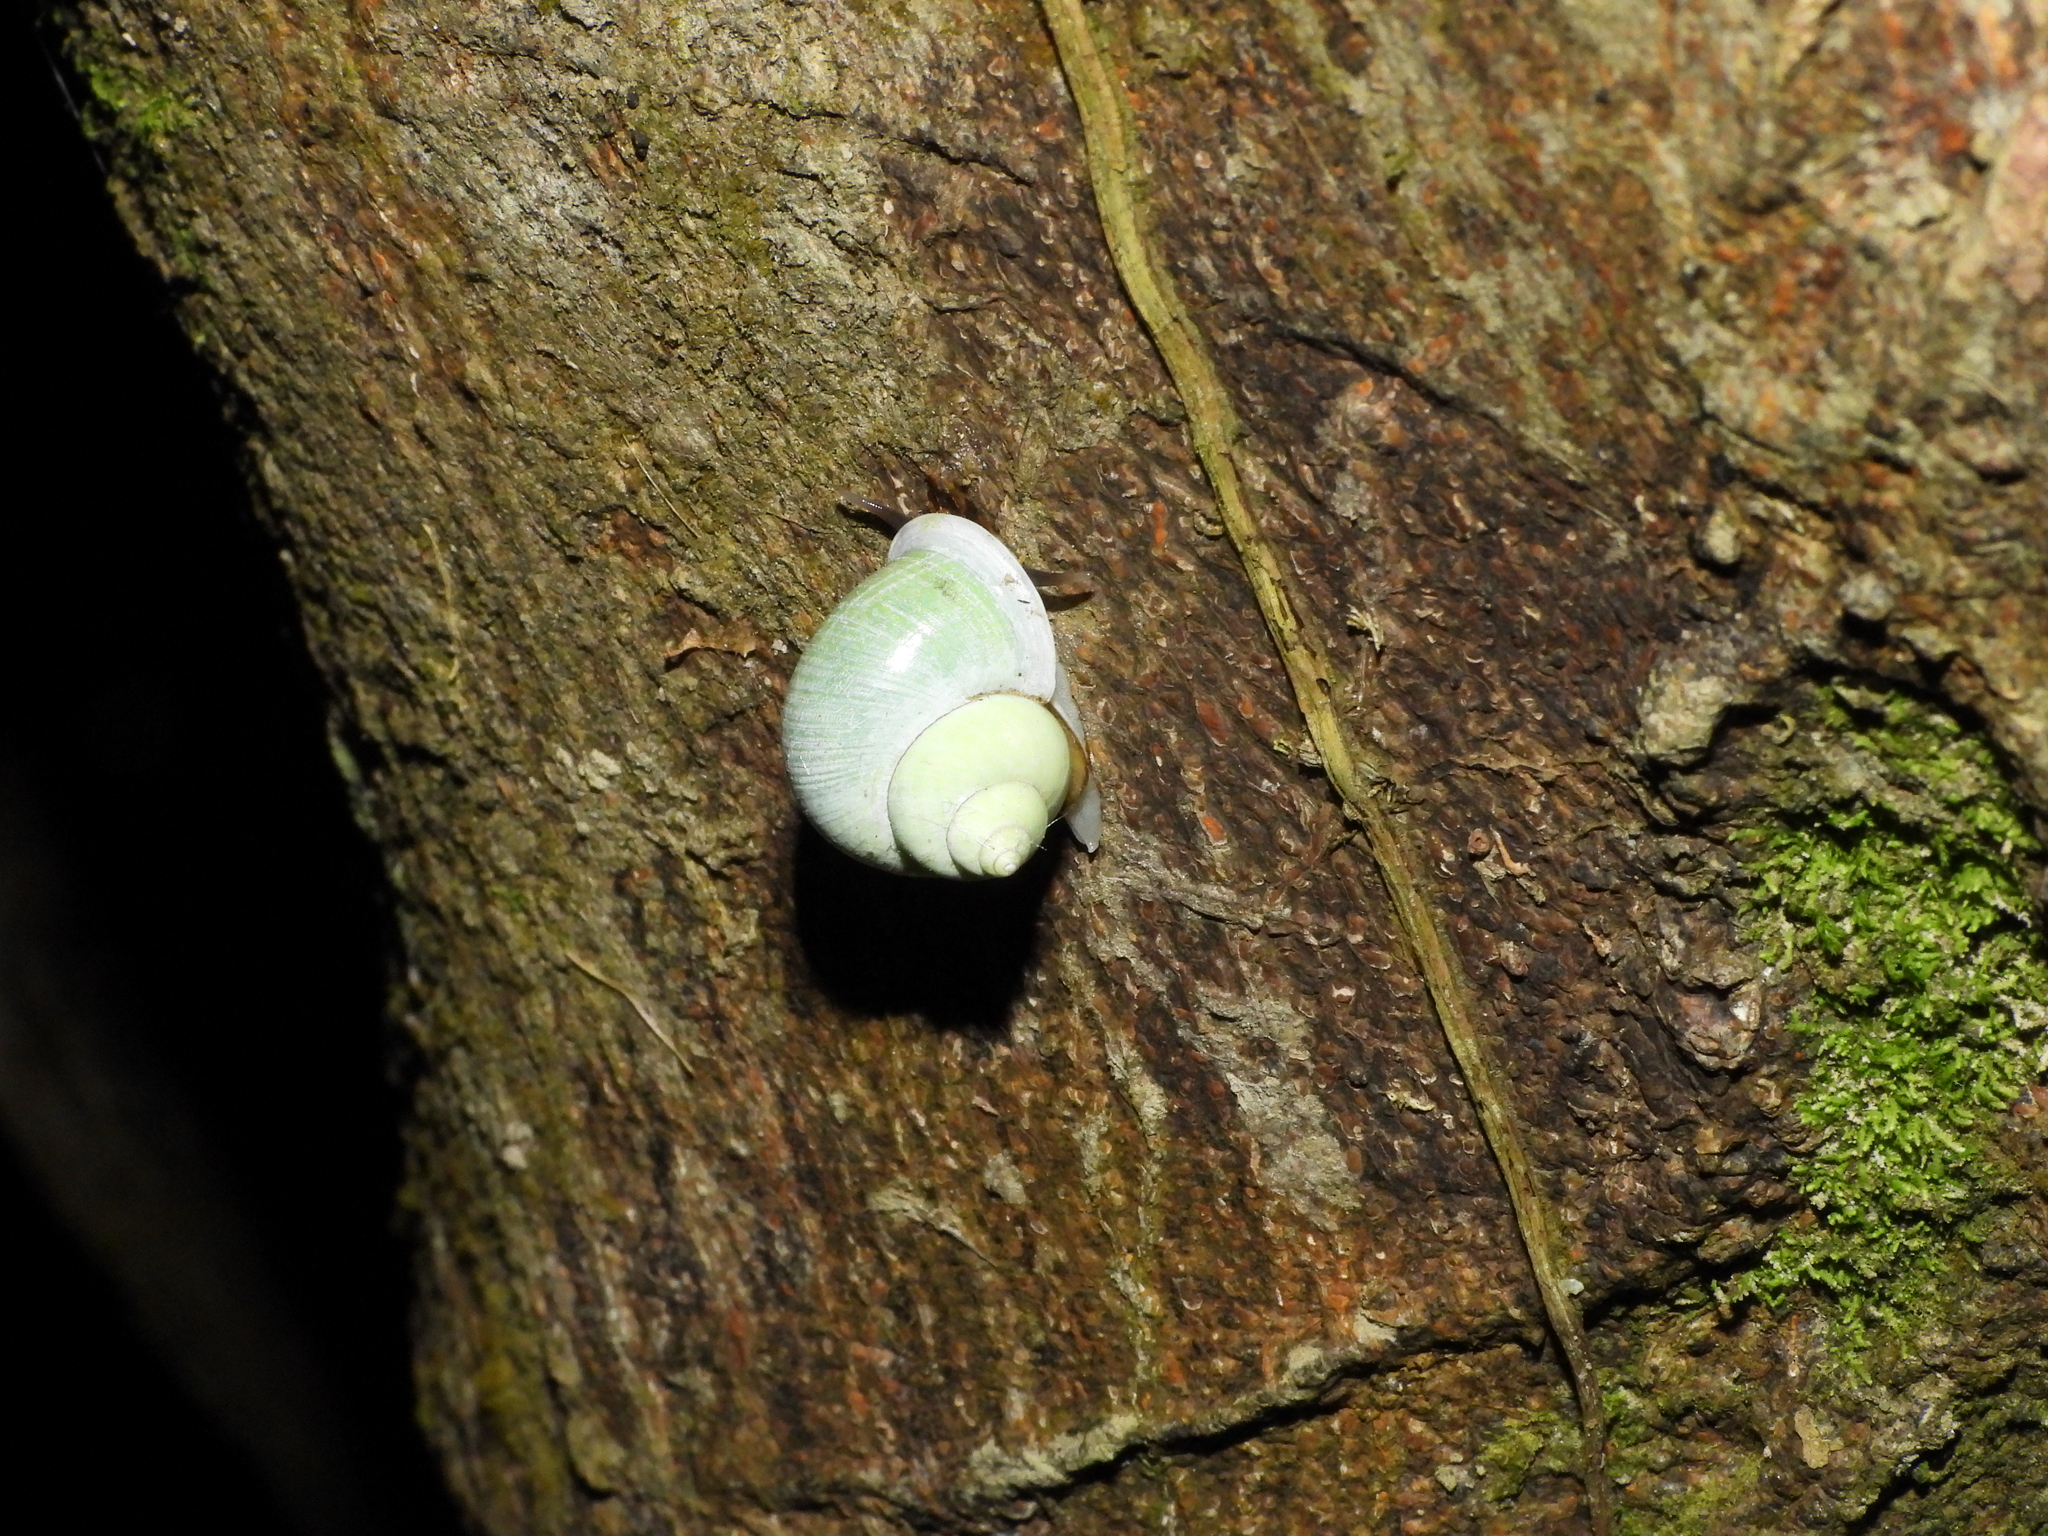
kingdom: Animalia
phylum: Mollusca
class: Gastropoda
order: Architaenioglossa
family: Cyclophoridae
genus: Leptopoma
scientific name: Leptopoma nitidum
